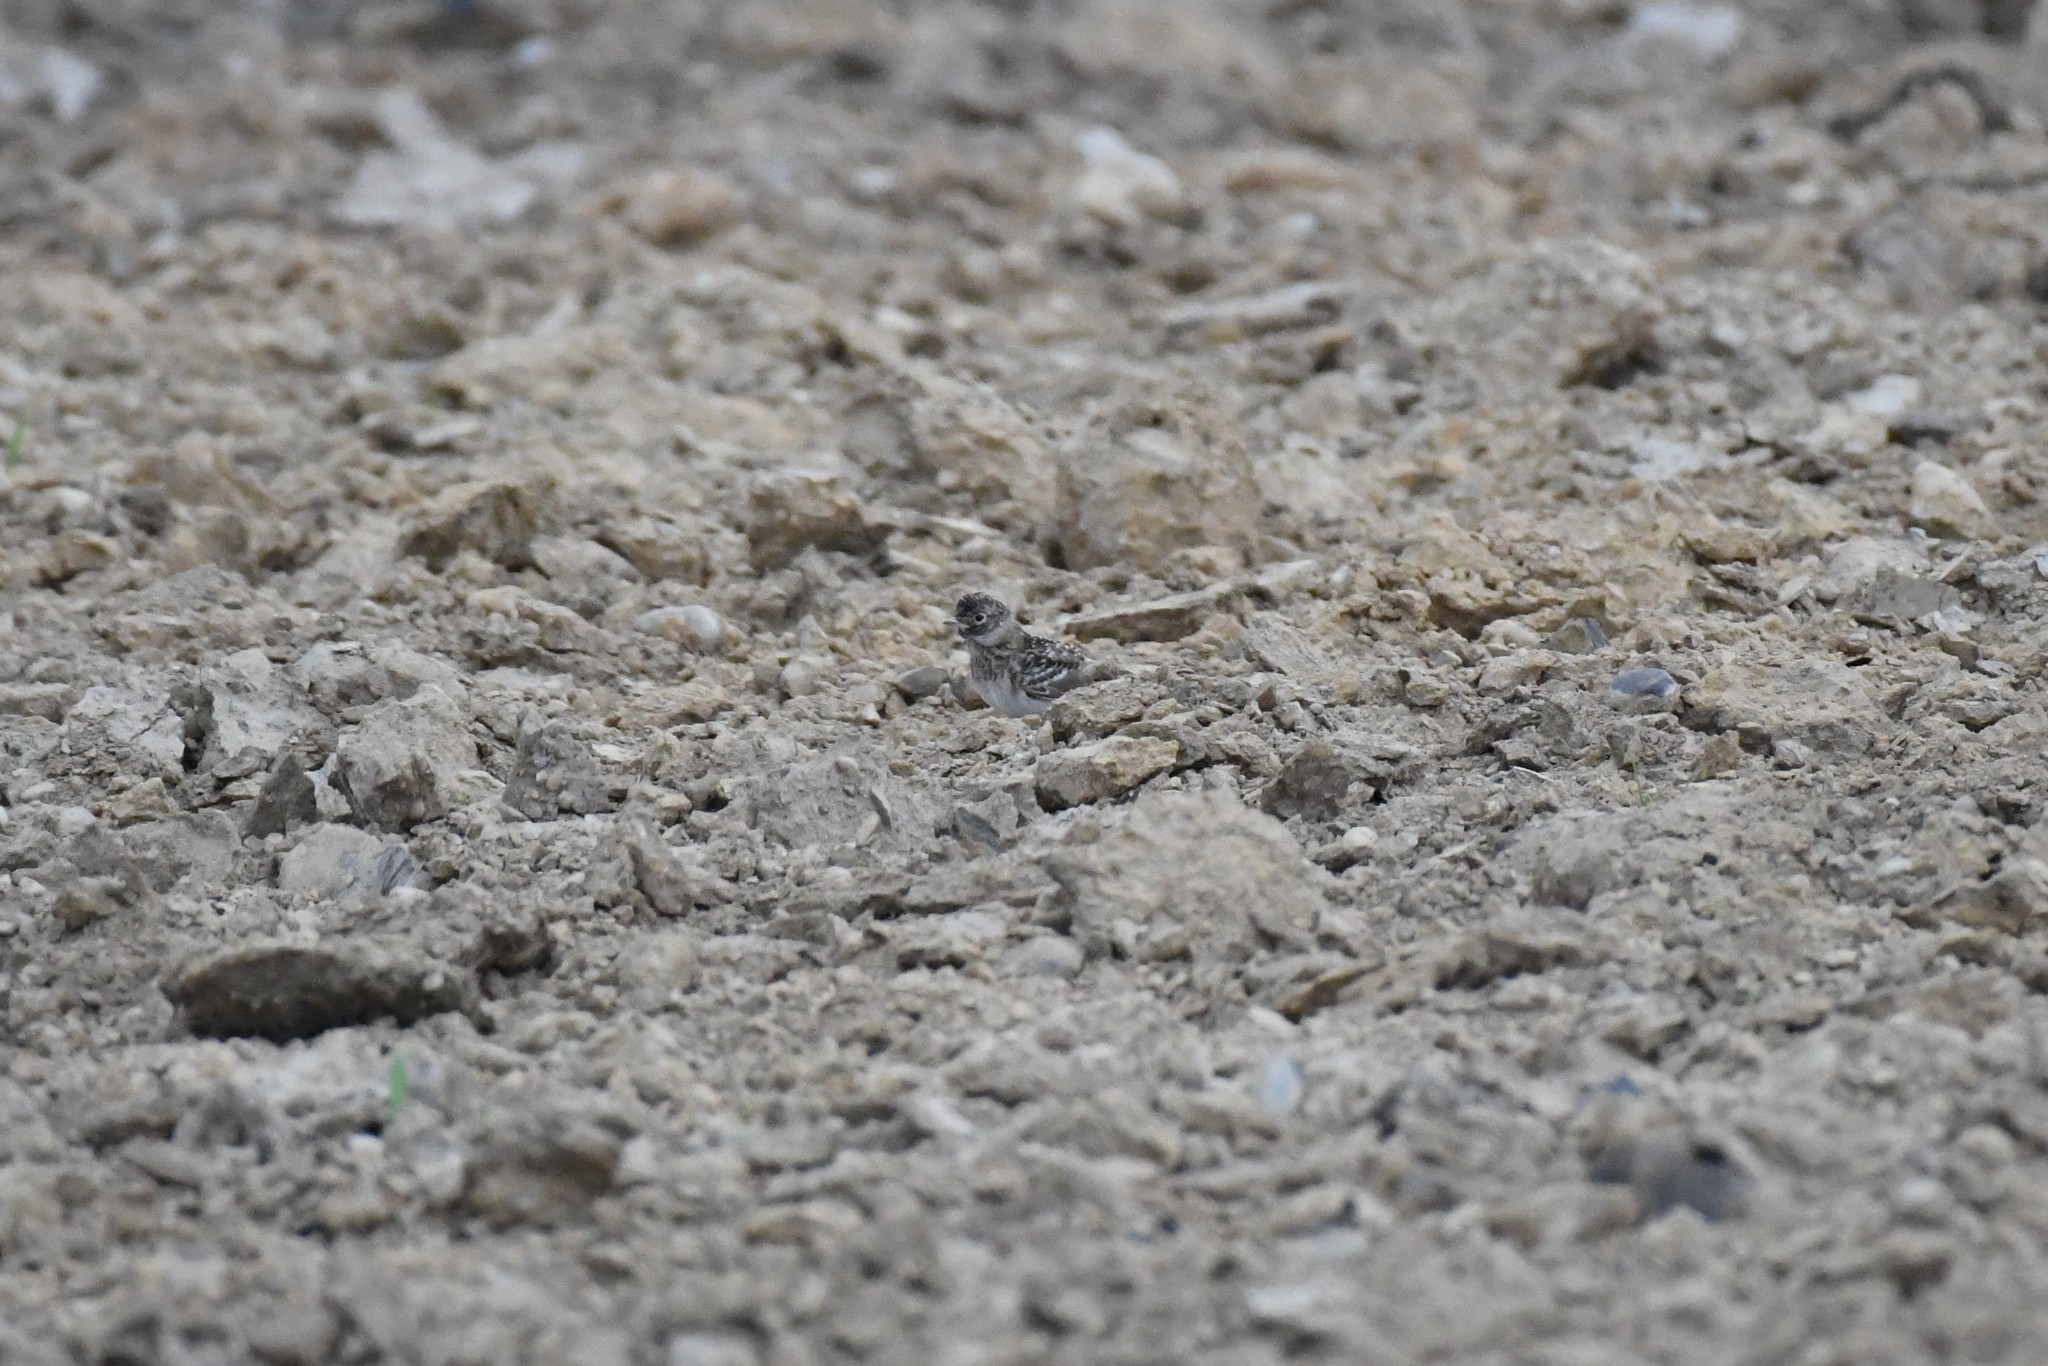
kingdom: Animalia
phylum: Chordata
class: Aves
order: Passeriformes
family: Alaudidae
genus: Eremophila
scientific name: Eremophila alpestris
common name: Horned lark
